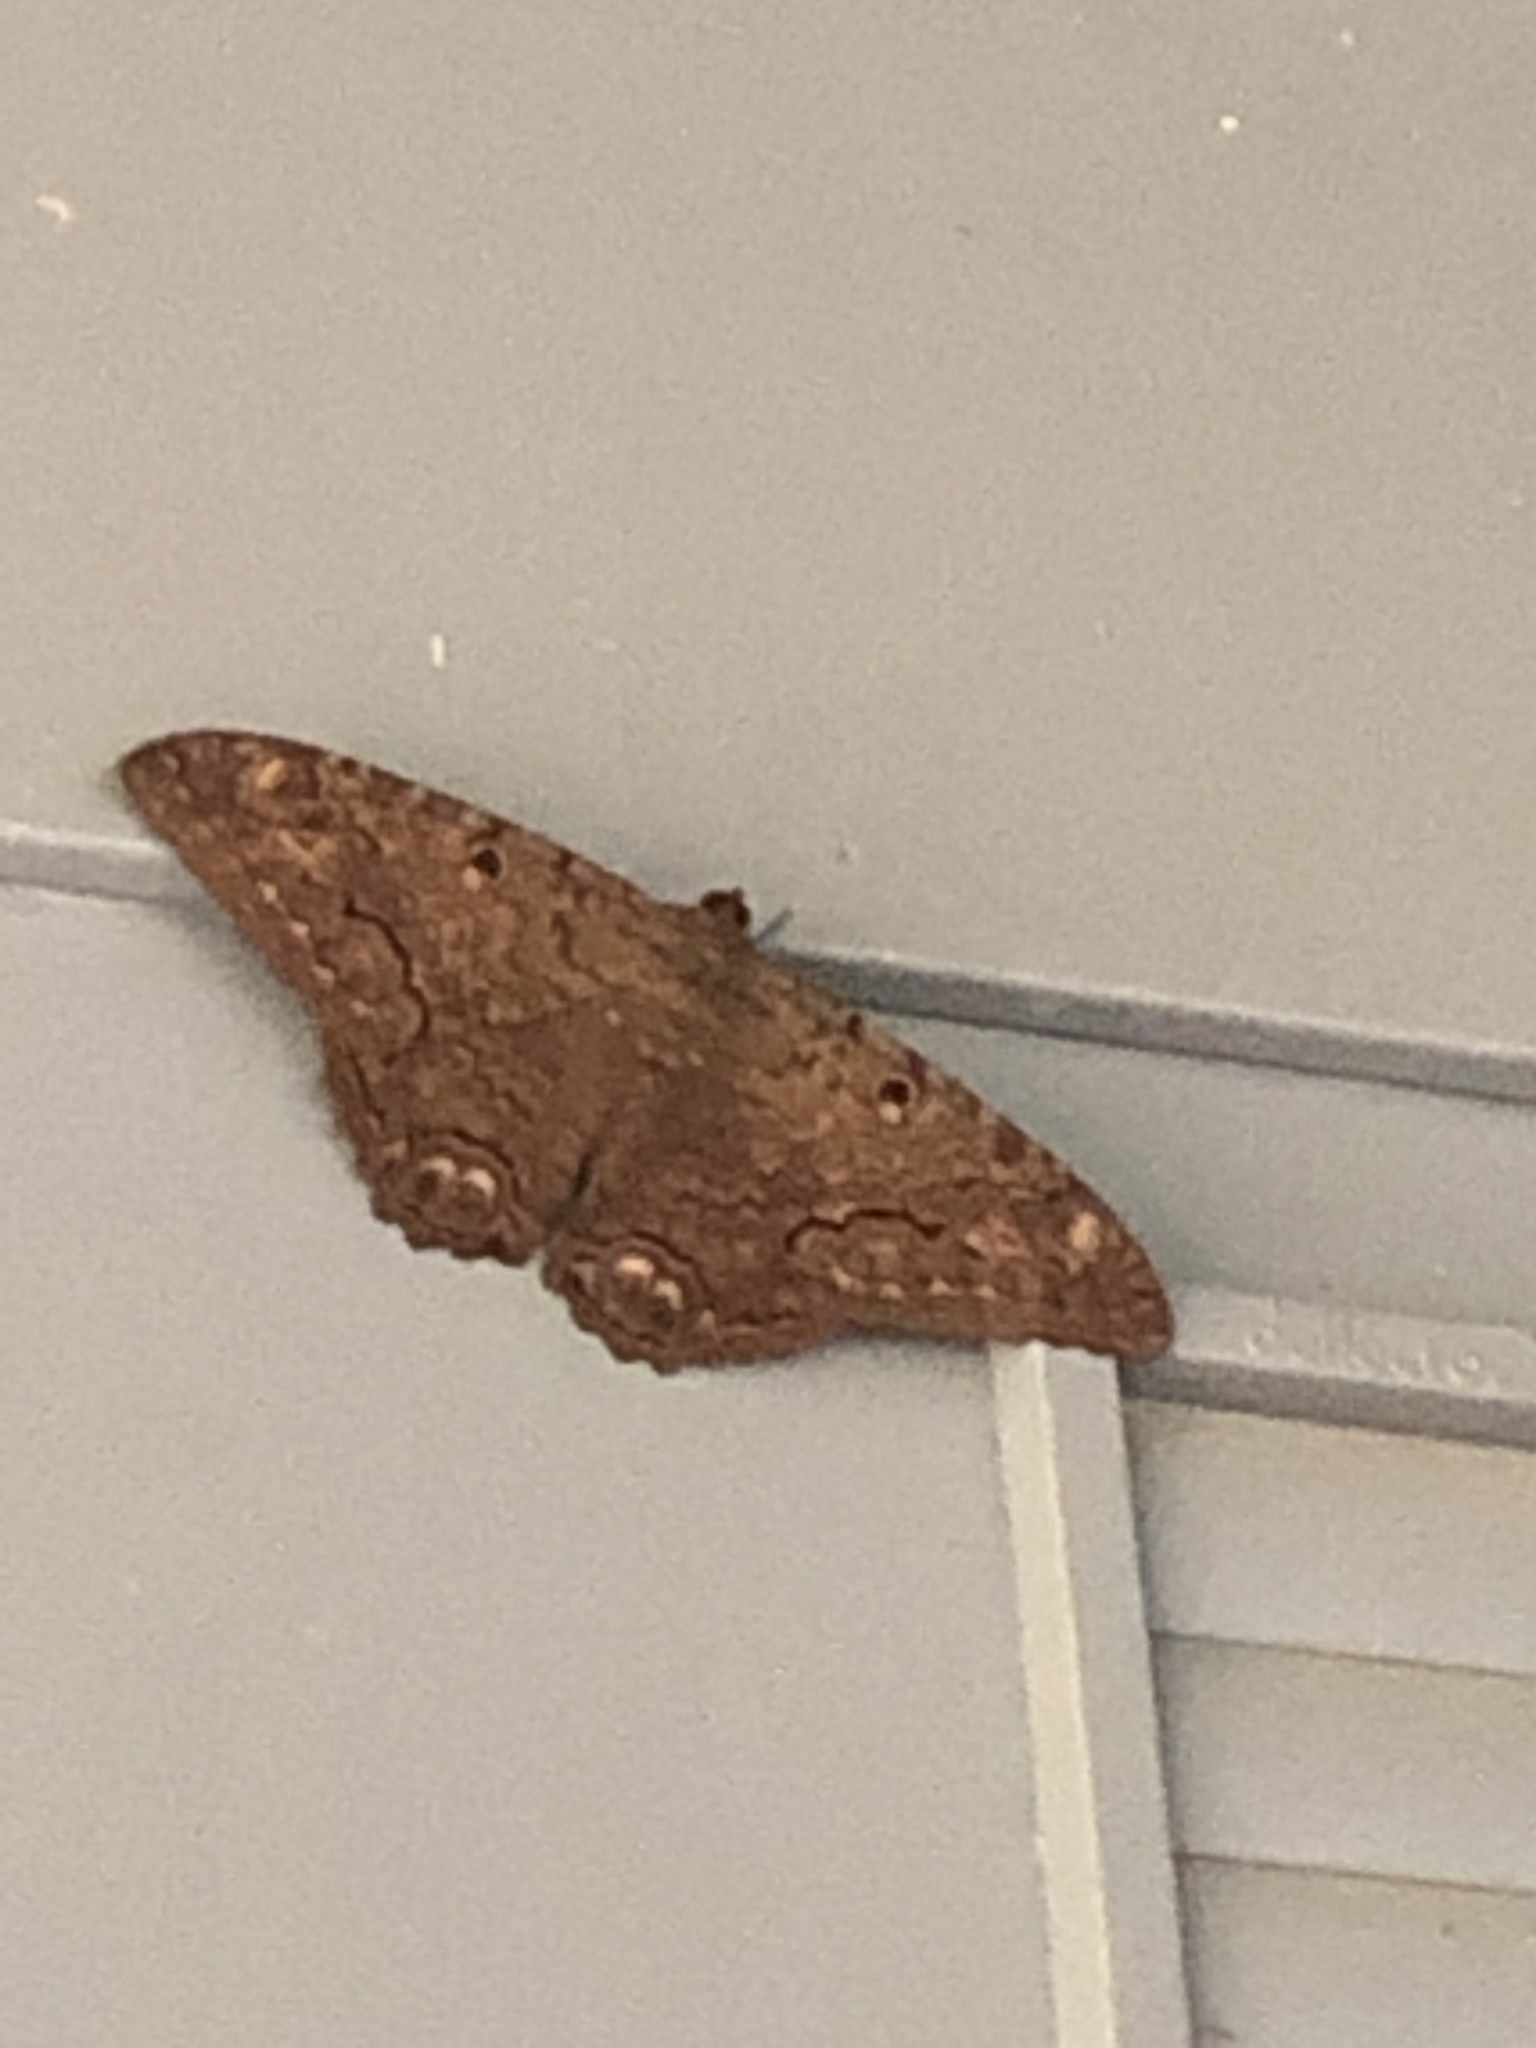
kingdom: Animalia
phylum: Arthropoda
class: Insecta
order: Lepidoptera
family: Erebidae
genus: Ascalapha
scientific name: Ascalapha odorata
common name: Black witch
